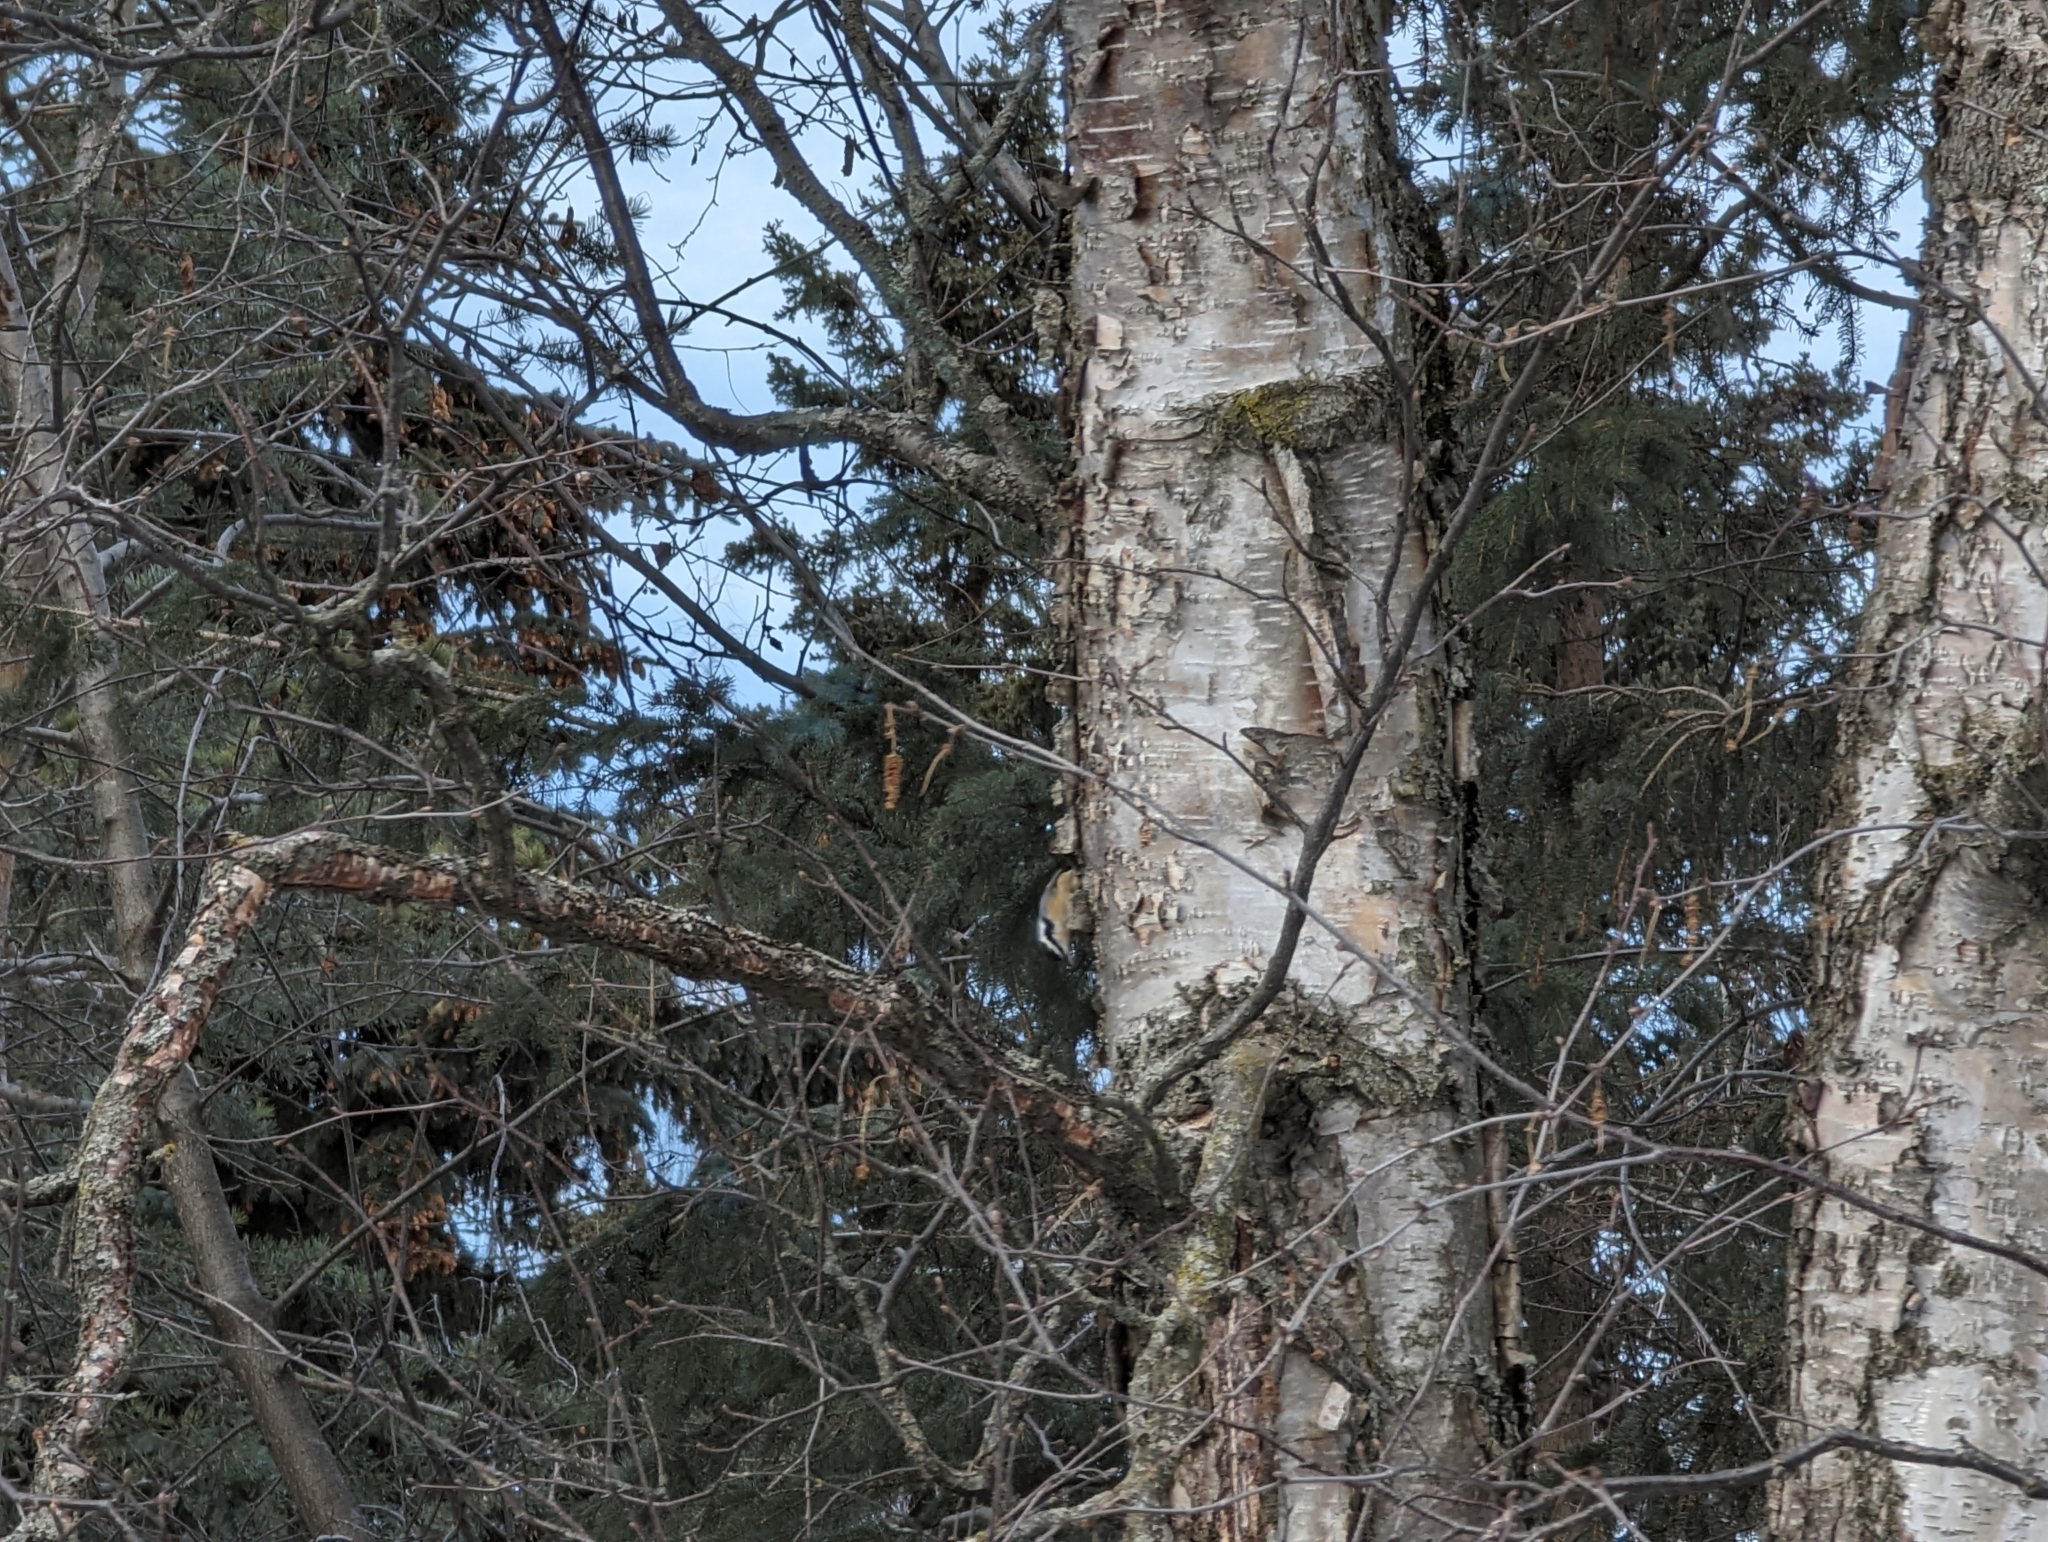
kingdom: Animalia
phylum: Chordata
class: Aves
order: Passeriformes
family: Sittidae
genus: Sitta
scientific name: Sitta canadensis
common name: Red-breasted nuthatch
